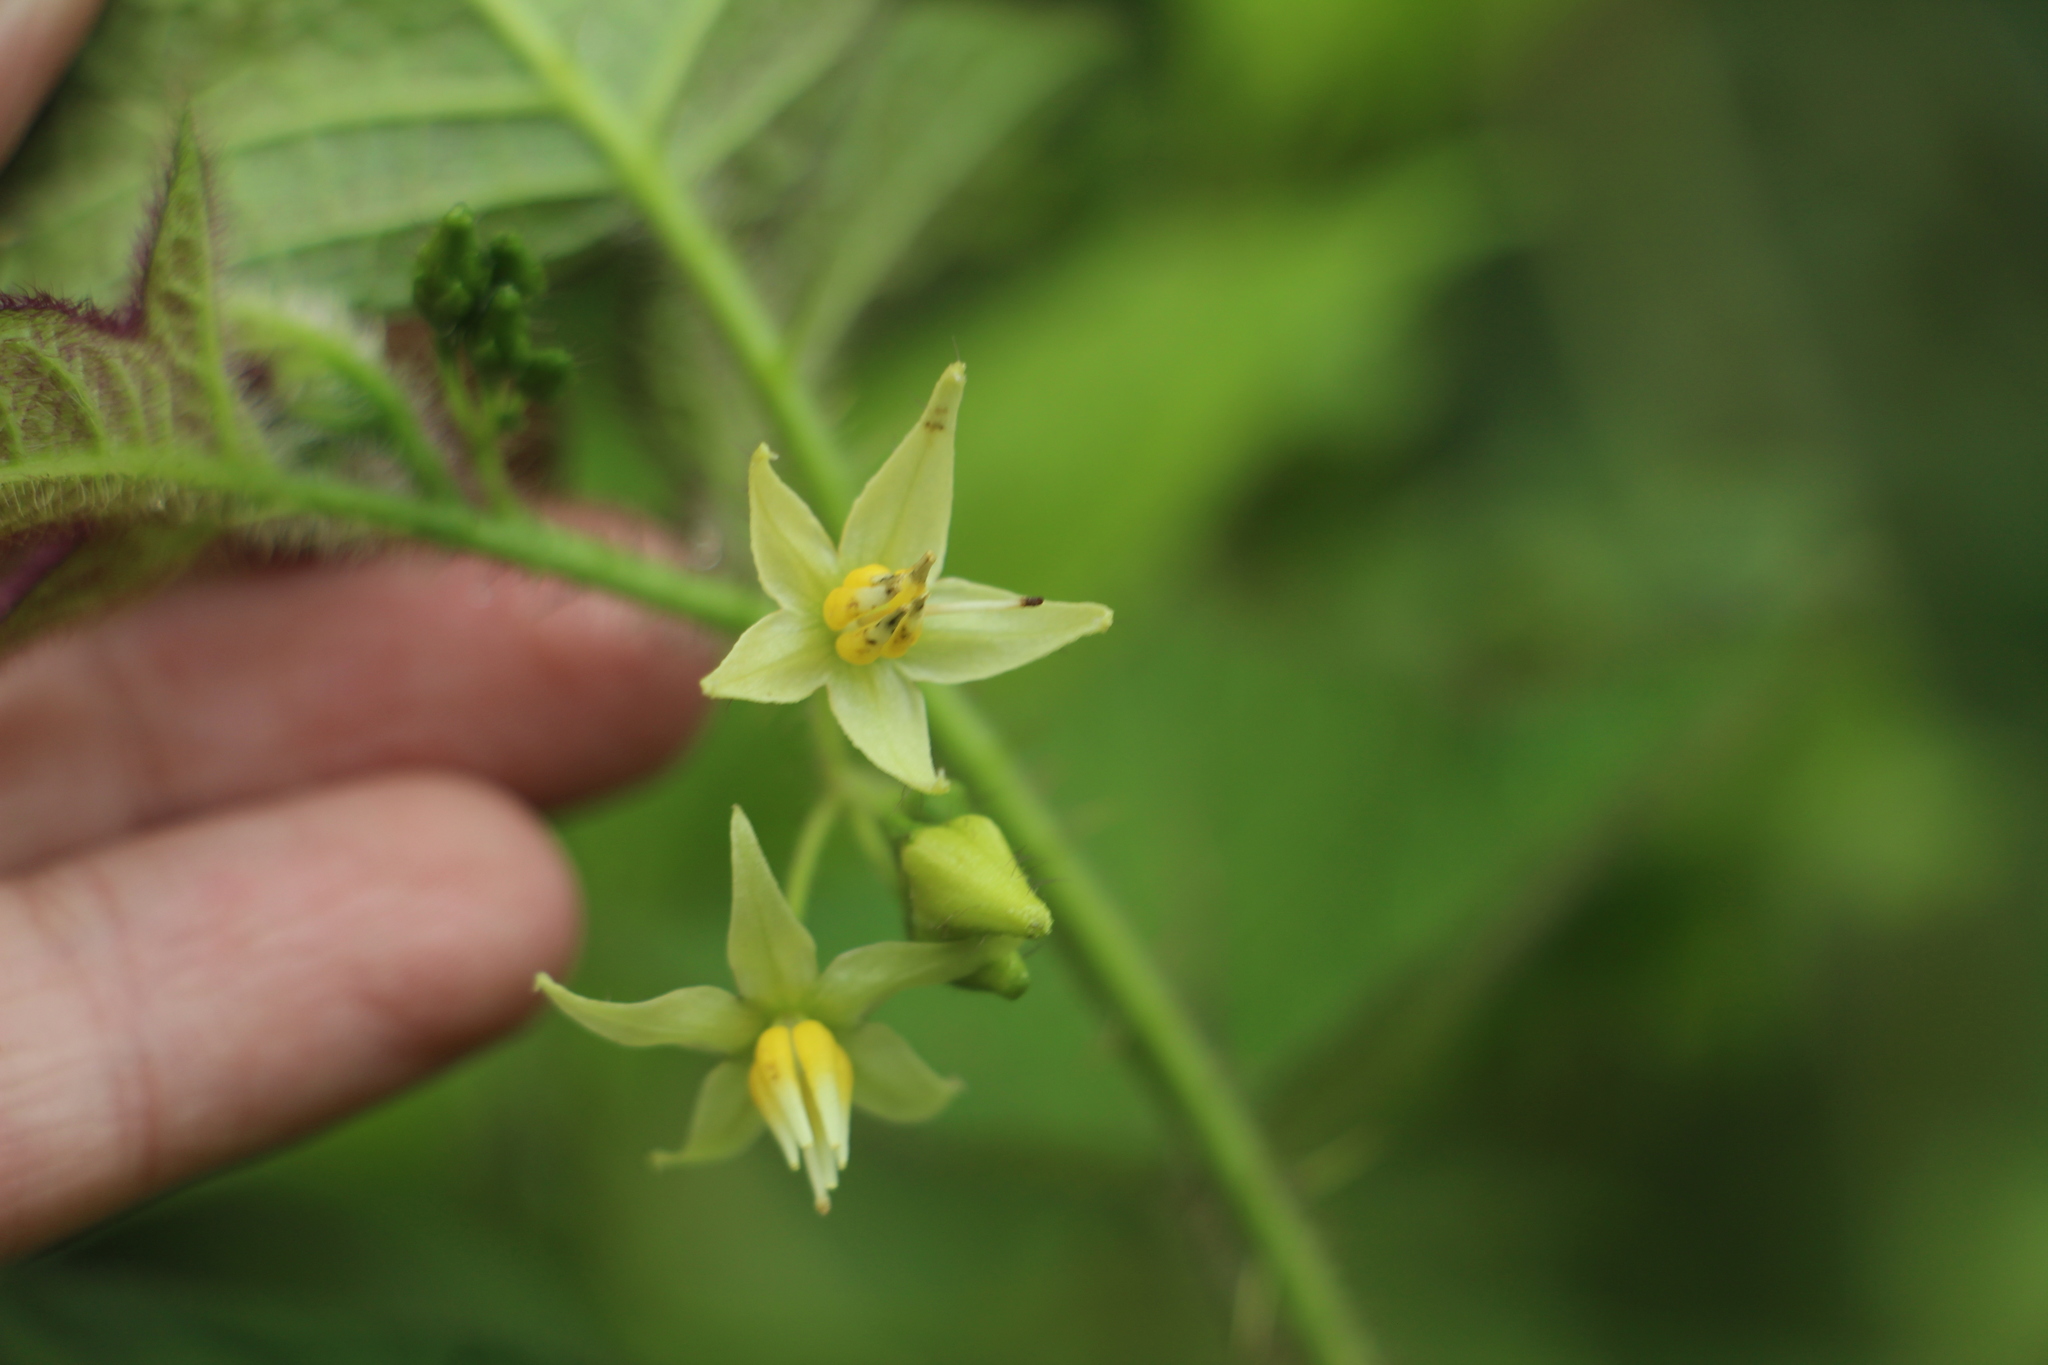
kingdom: Plantae
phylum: Tracheophyta
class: Magnoliopsida
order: Solanales
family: Solanaceae
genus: Solanum
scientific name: Solanum acerifolium
